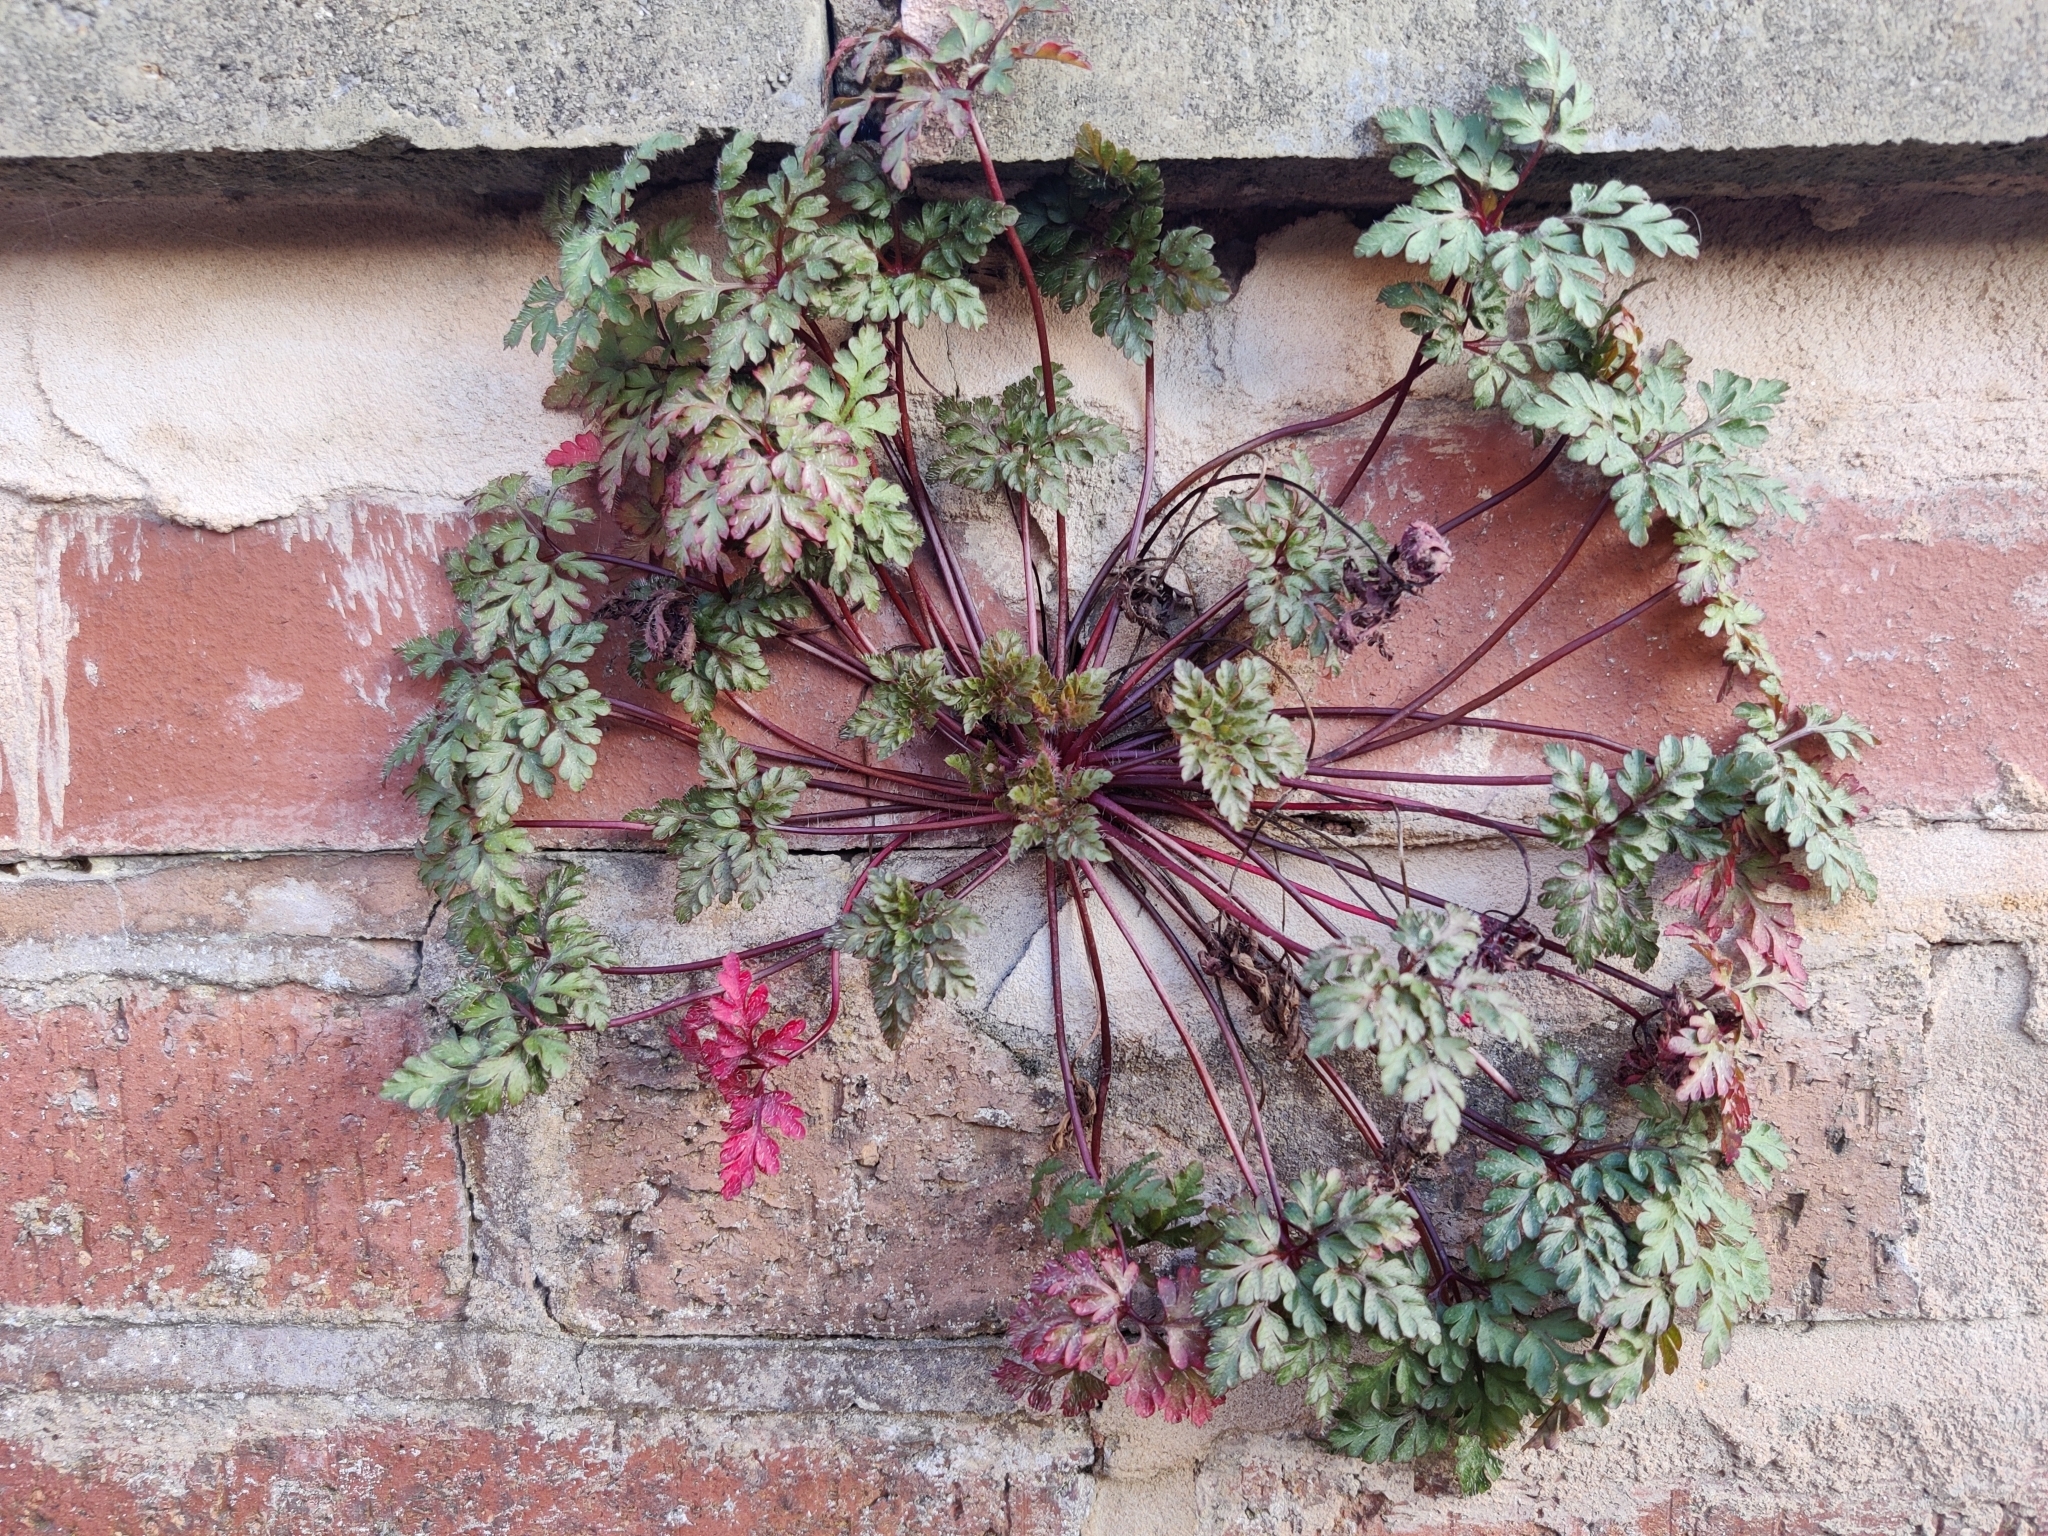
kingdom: Plantae
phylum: Tracheophyta
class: Magnoliopsida
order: Geraniales
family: Geraniaceae
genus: Geranium
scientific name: Geranium robertianum
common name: Herb-robert
